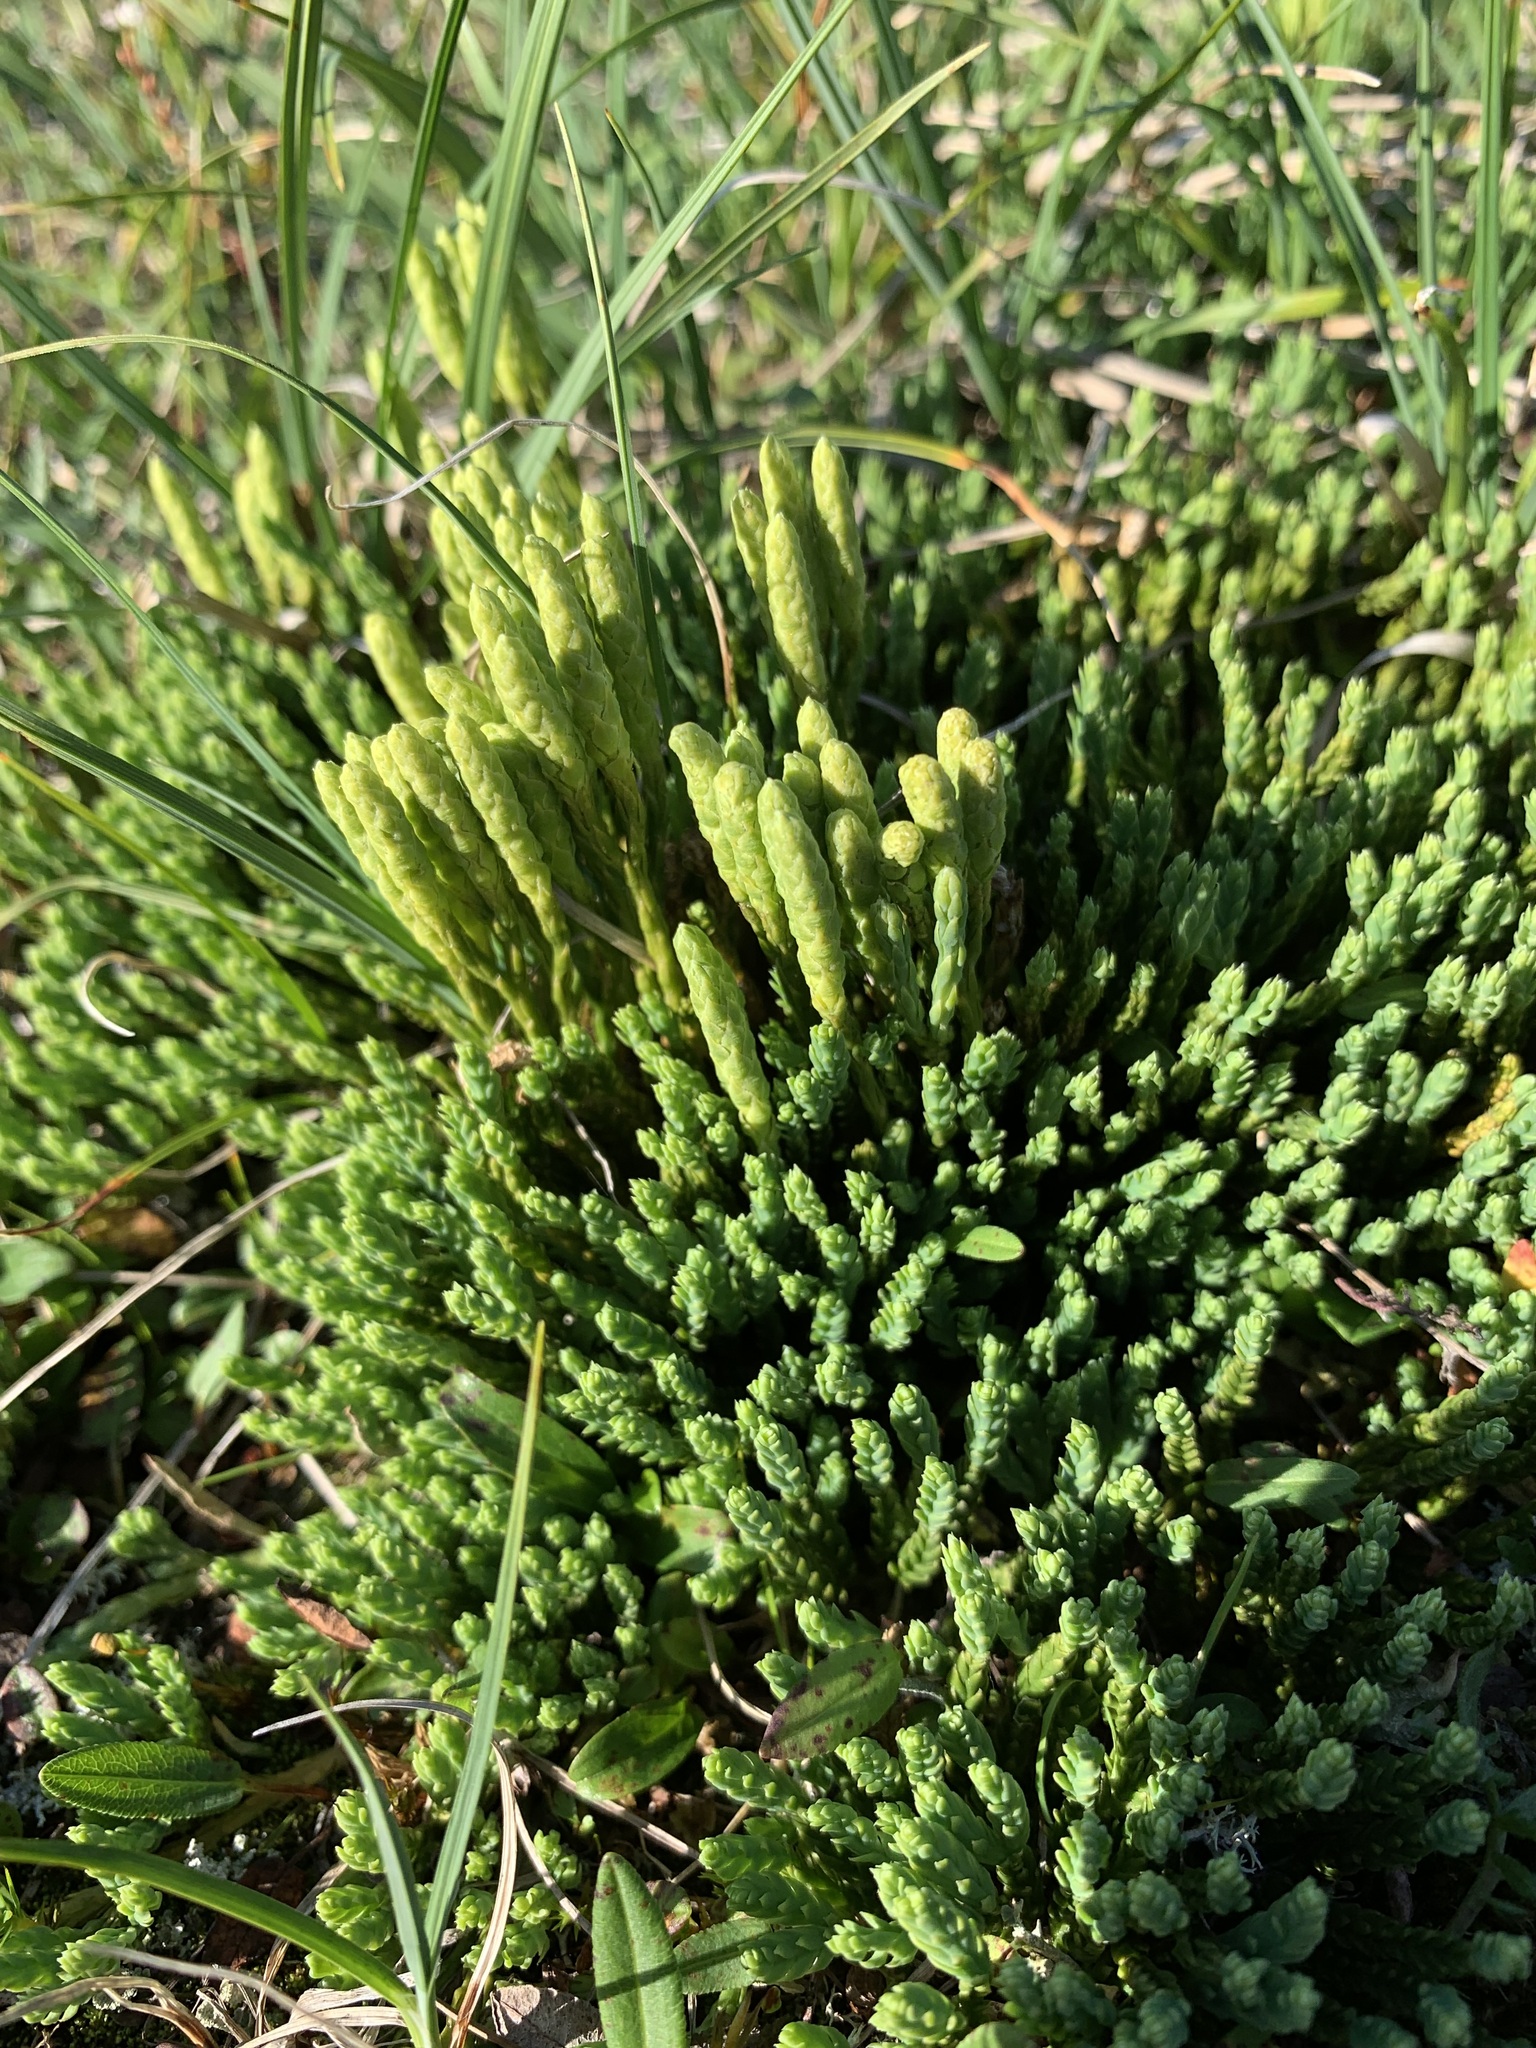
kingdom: Plantae
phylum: Tracheophyta
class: Lycopodiopsida
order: Lycopodiales
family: Lycopodiaceae
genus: Diphasiastrum
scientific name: Diphasiastrum alpinum
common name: Alpine clubmoss
